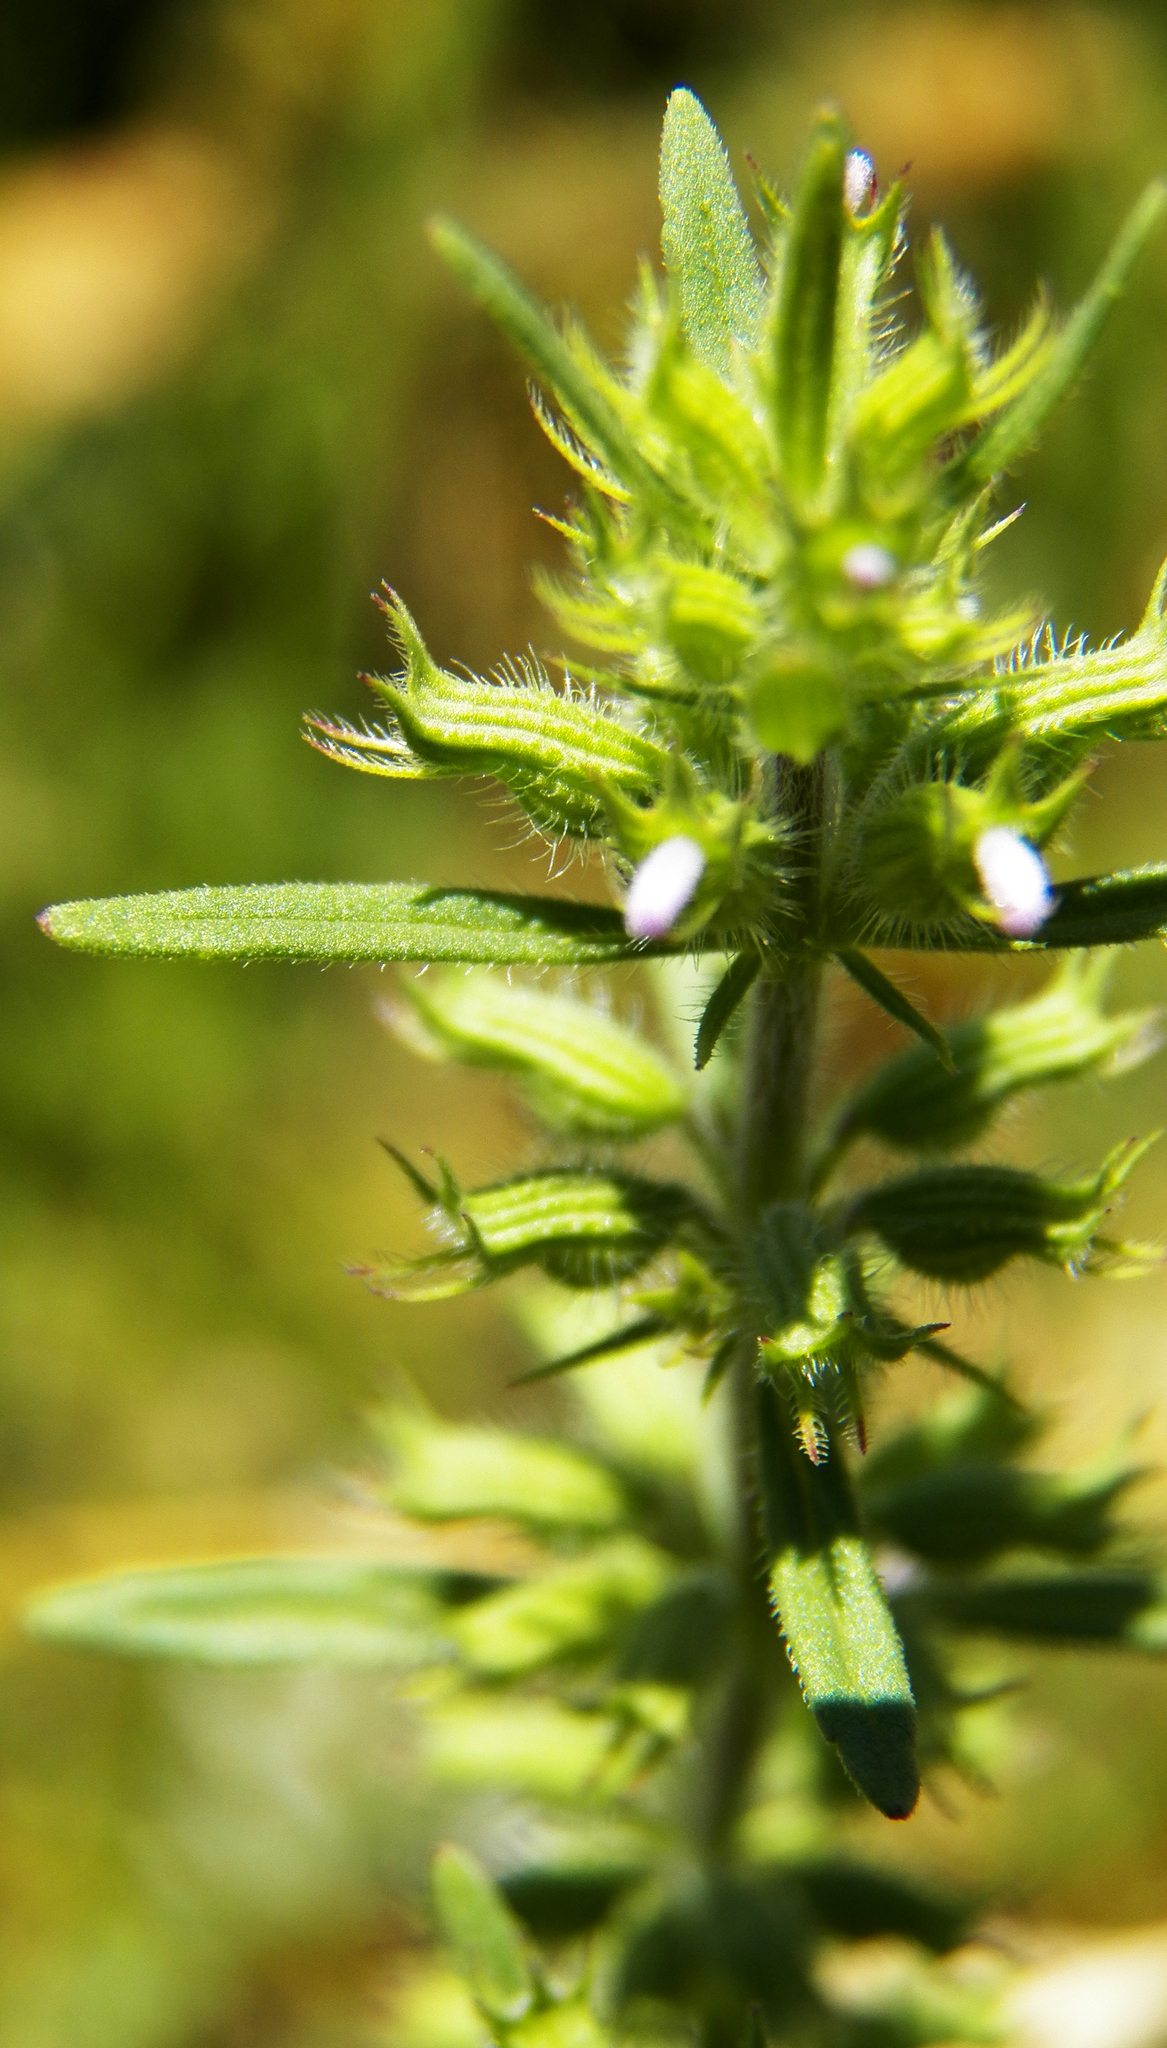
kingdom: Plantae
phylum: Tracheophyta
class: Magnoliopsida
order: Lamiales
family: Lamiaceae
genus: Hedeoma
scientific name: Hedeoma hispida
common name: Mock pennyroyal
